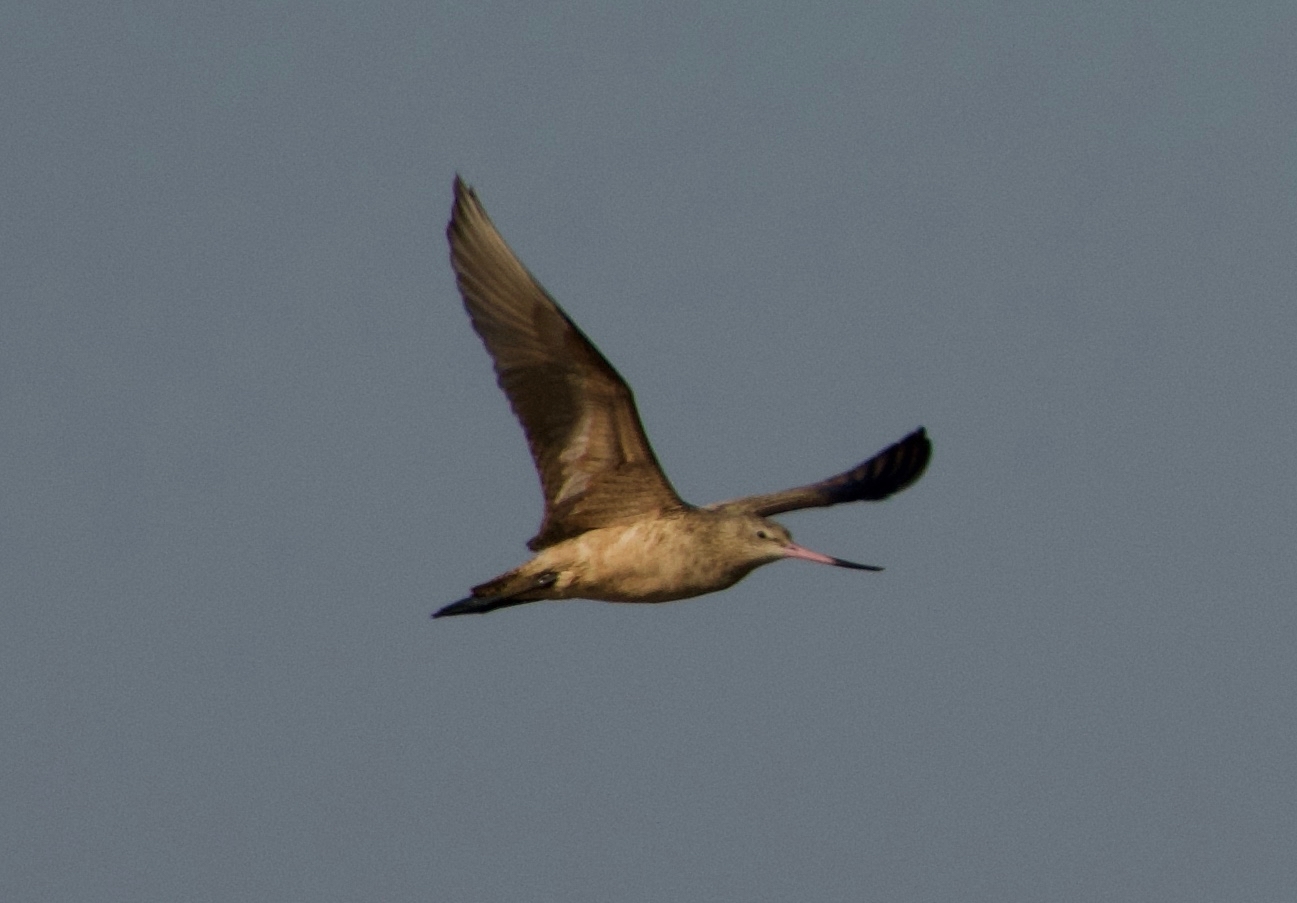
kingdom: Animalia
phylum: Chordata
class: Aves
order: Charadriiformes
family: Scolopacidae
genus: Limosa
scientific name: Limosa fedoa
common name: Marbled godwit
